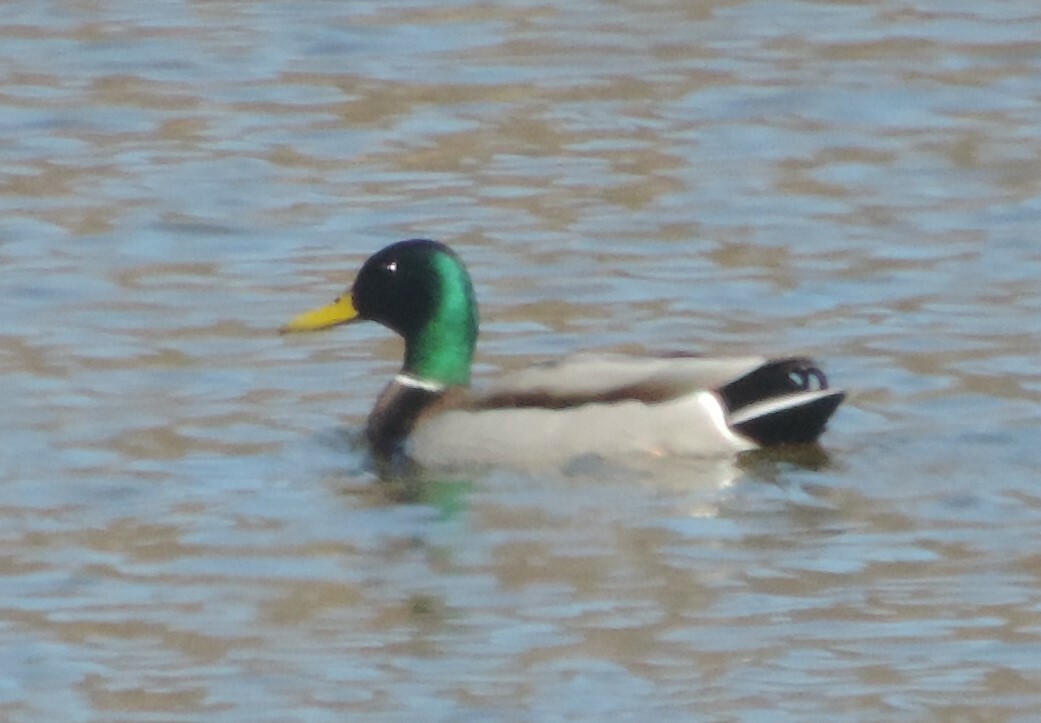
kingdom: Animalia
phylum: Chordata
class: Aves
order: Anseriformes
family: Anatidae
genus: Anas
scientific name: Anas platyrhynchos
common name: Mallard
